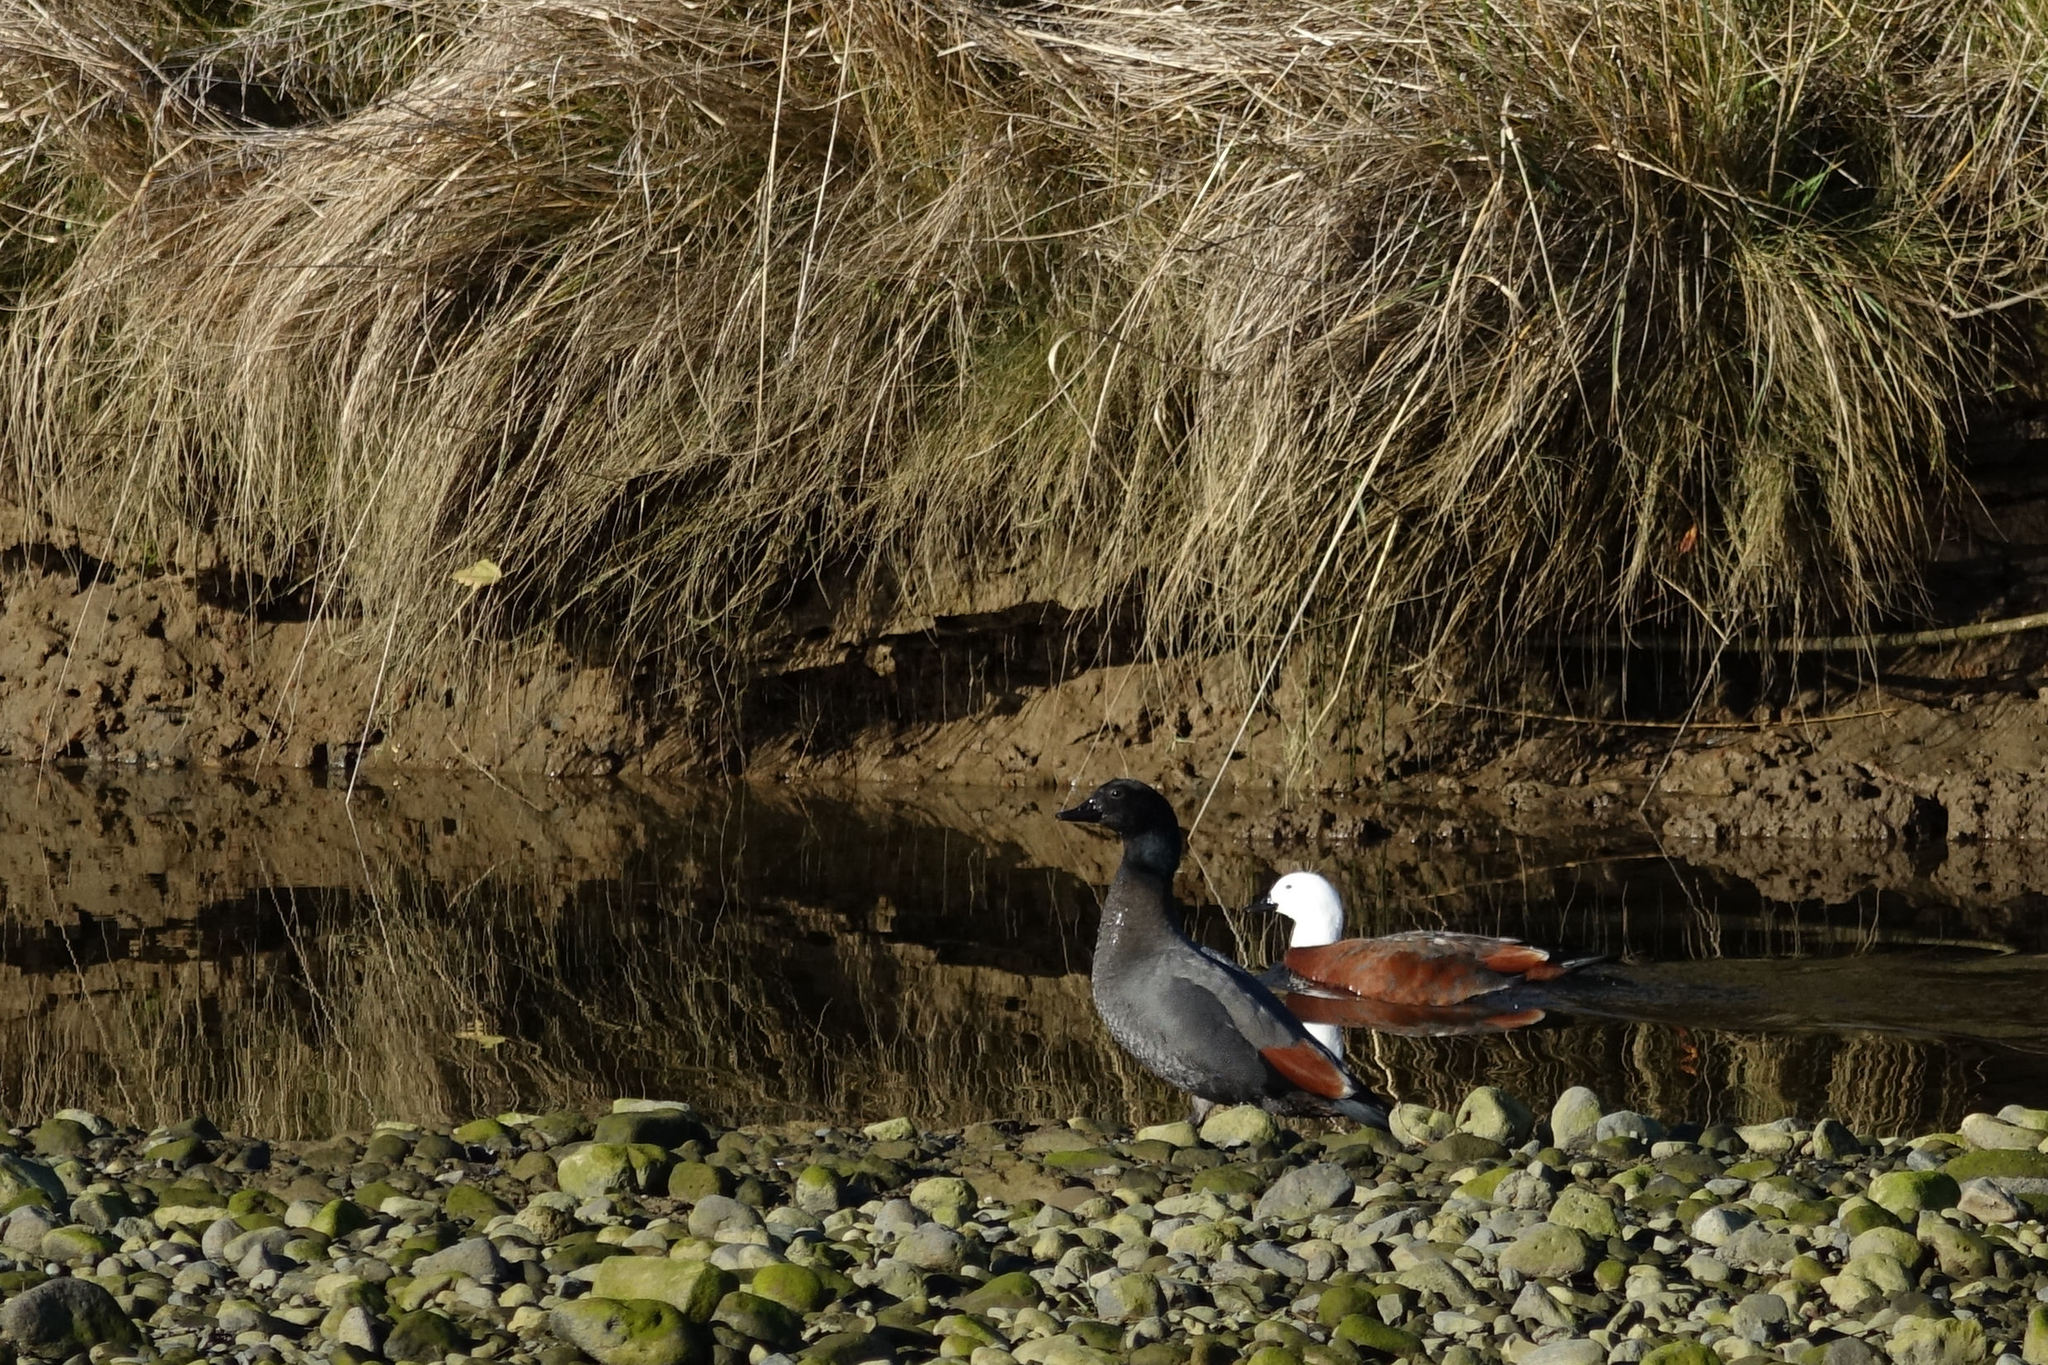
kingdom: Animalia
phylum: Chordata
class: Aves
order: Anseriformes
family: Anatidae
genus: Tadorna
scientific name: Tadorna variegata
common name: Paradise shelduck
